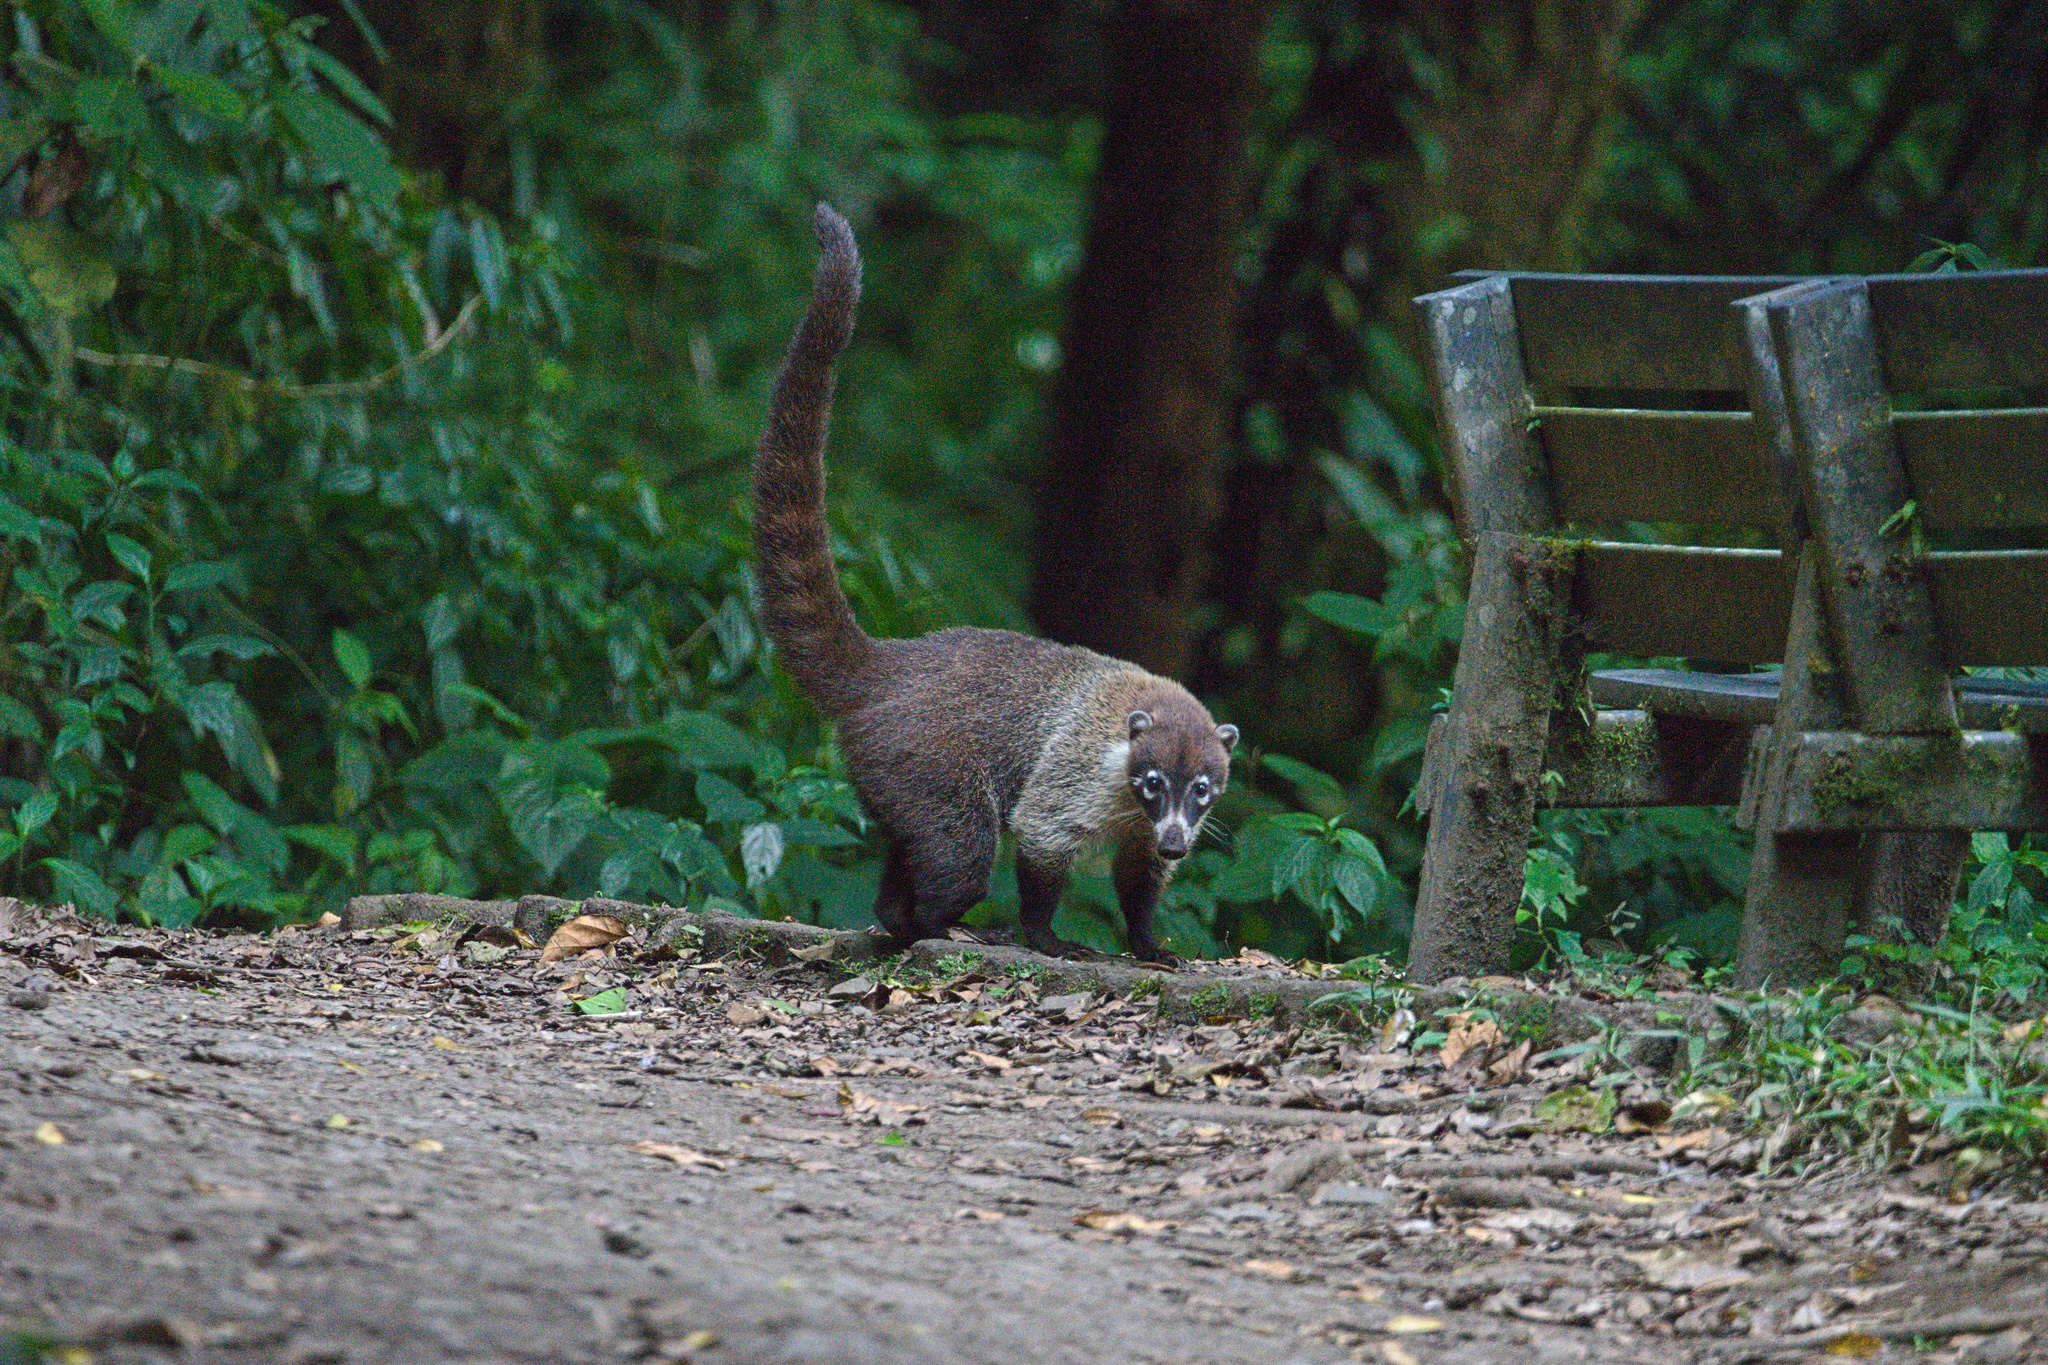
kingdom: Animalia
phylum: Chordata
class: Mammalia
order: Carnivora
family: Procyonidae
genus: Nasua
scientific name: Nasua narica
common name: White-nosed coati
